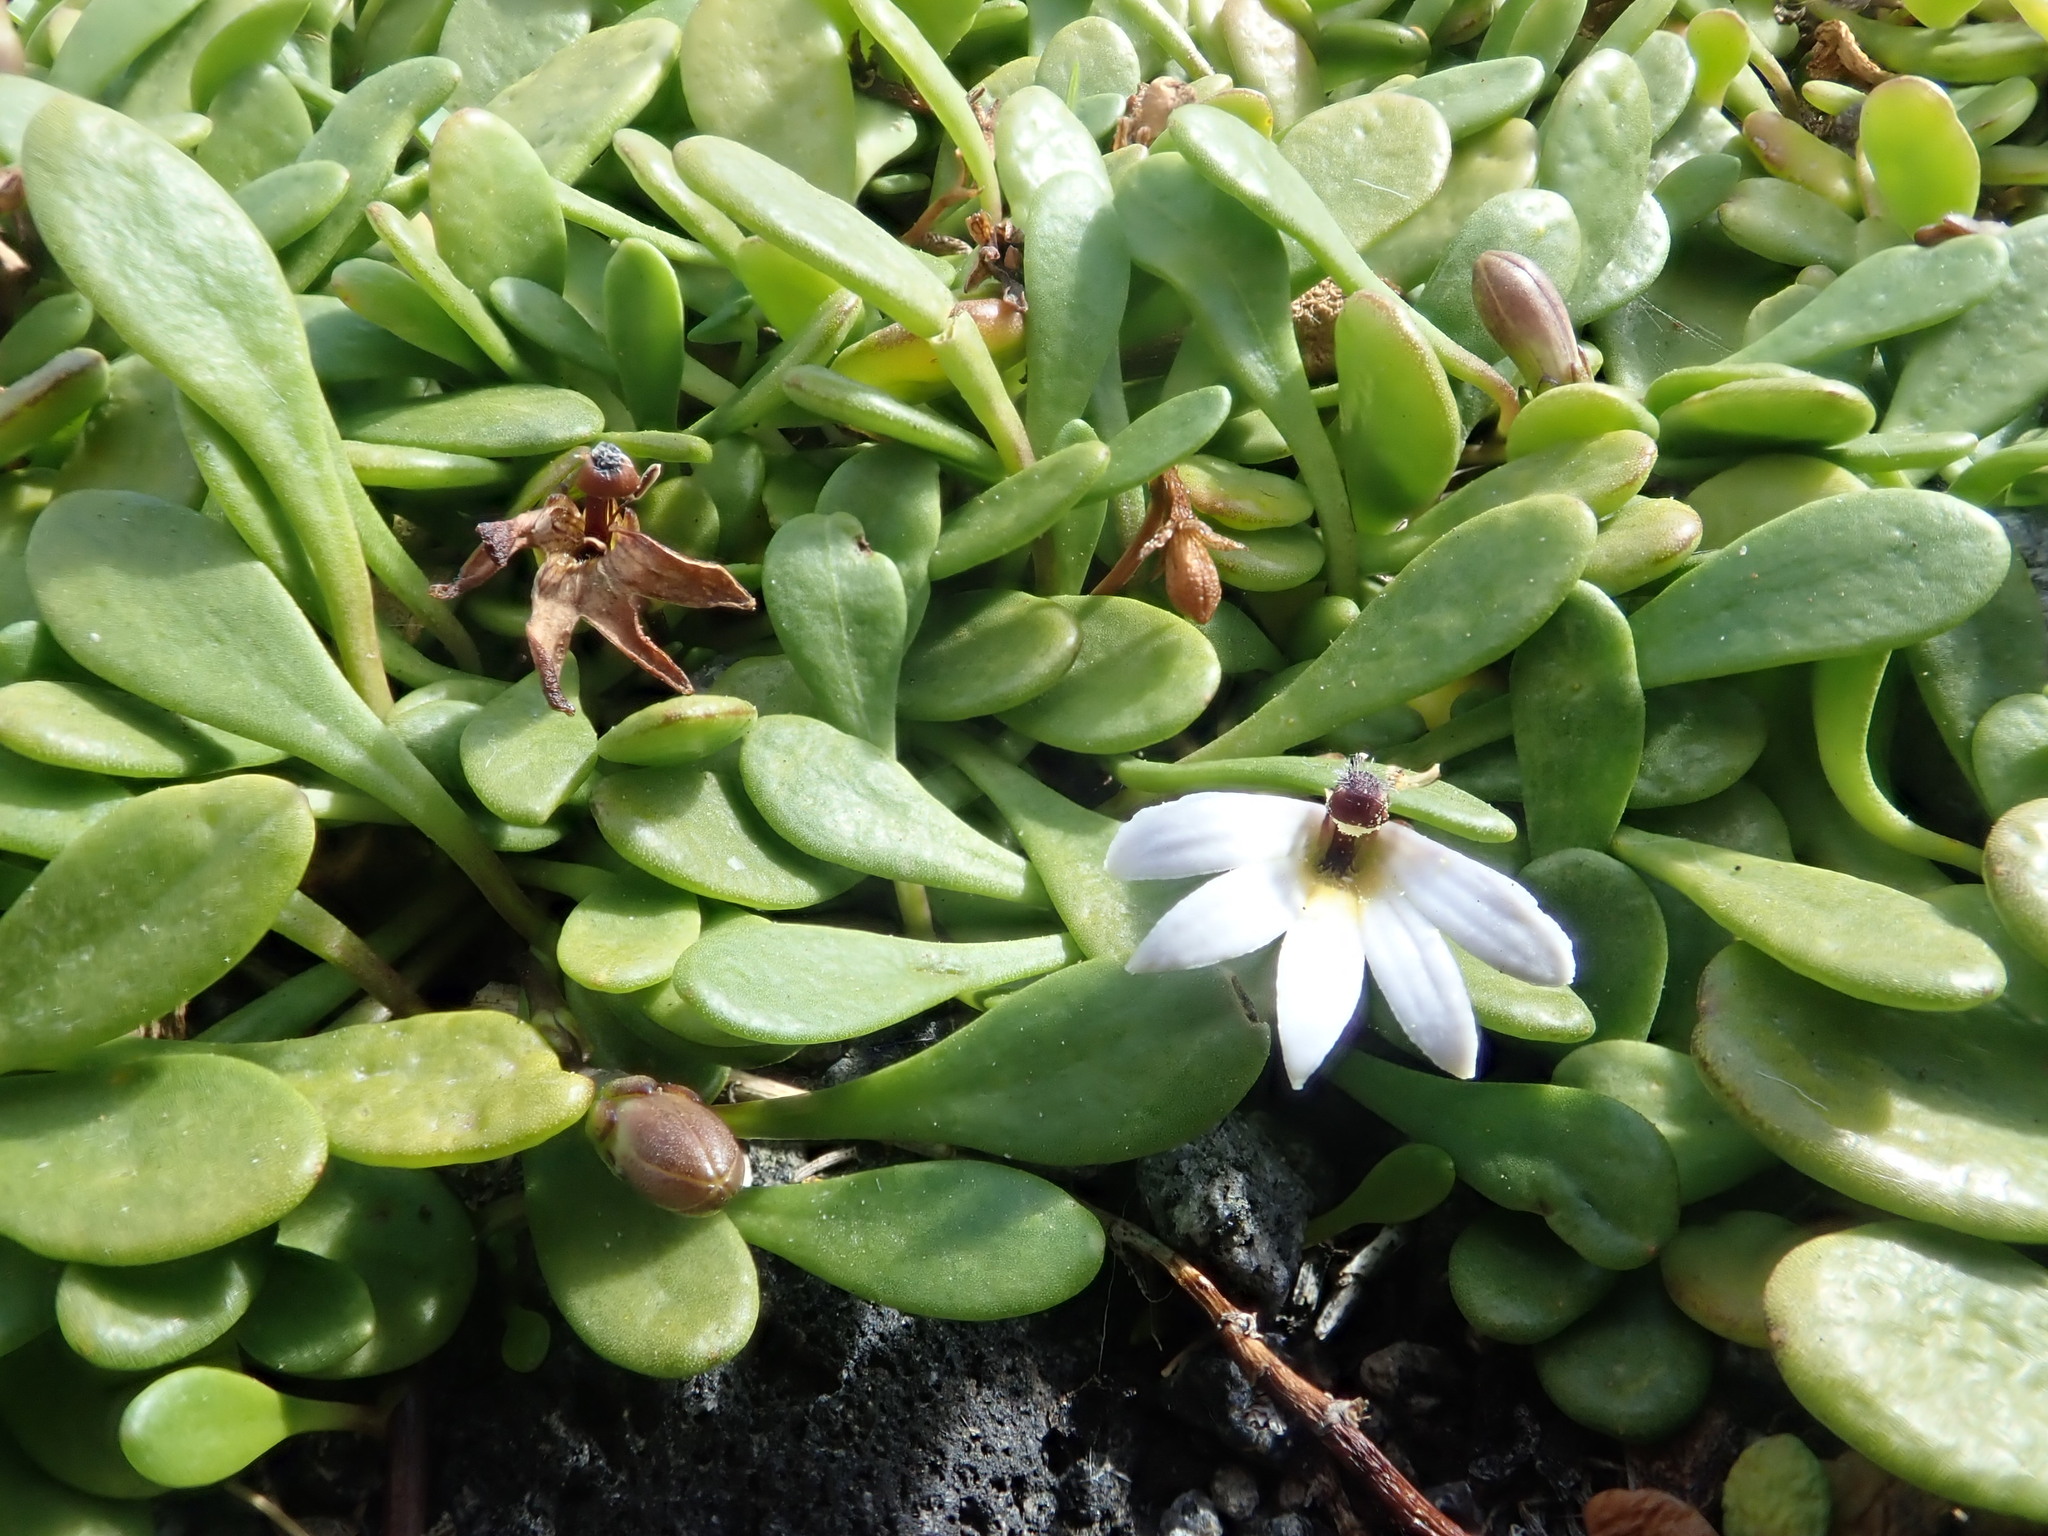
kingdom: Plantae
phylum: Tracheophyta
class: Magnoliopsida
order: Asterales
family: Goodeniaceae
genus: Goodenia
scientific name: Goodenia radicans
